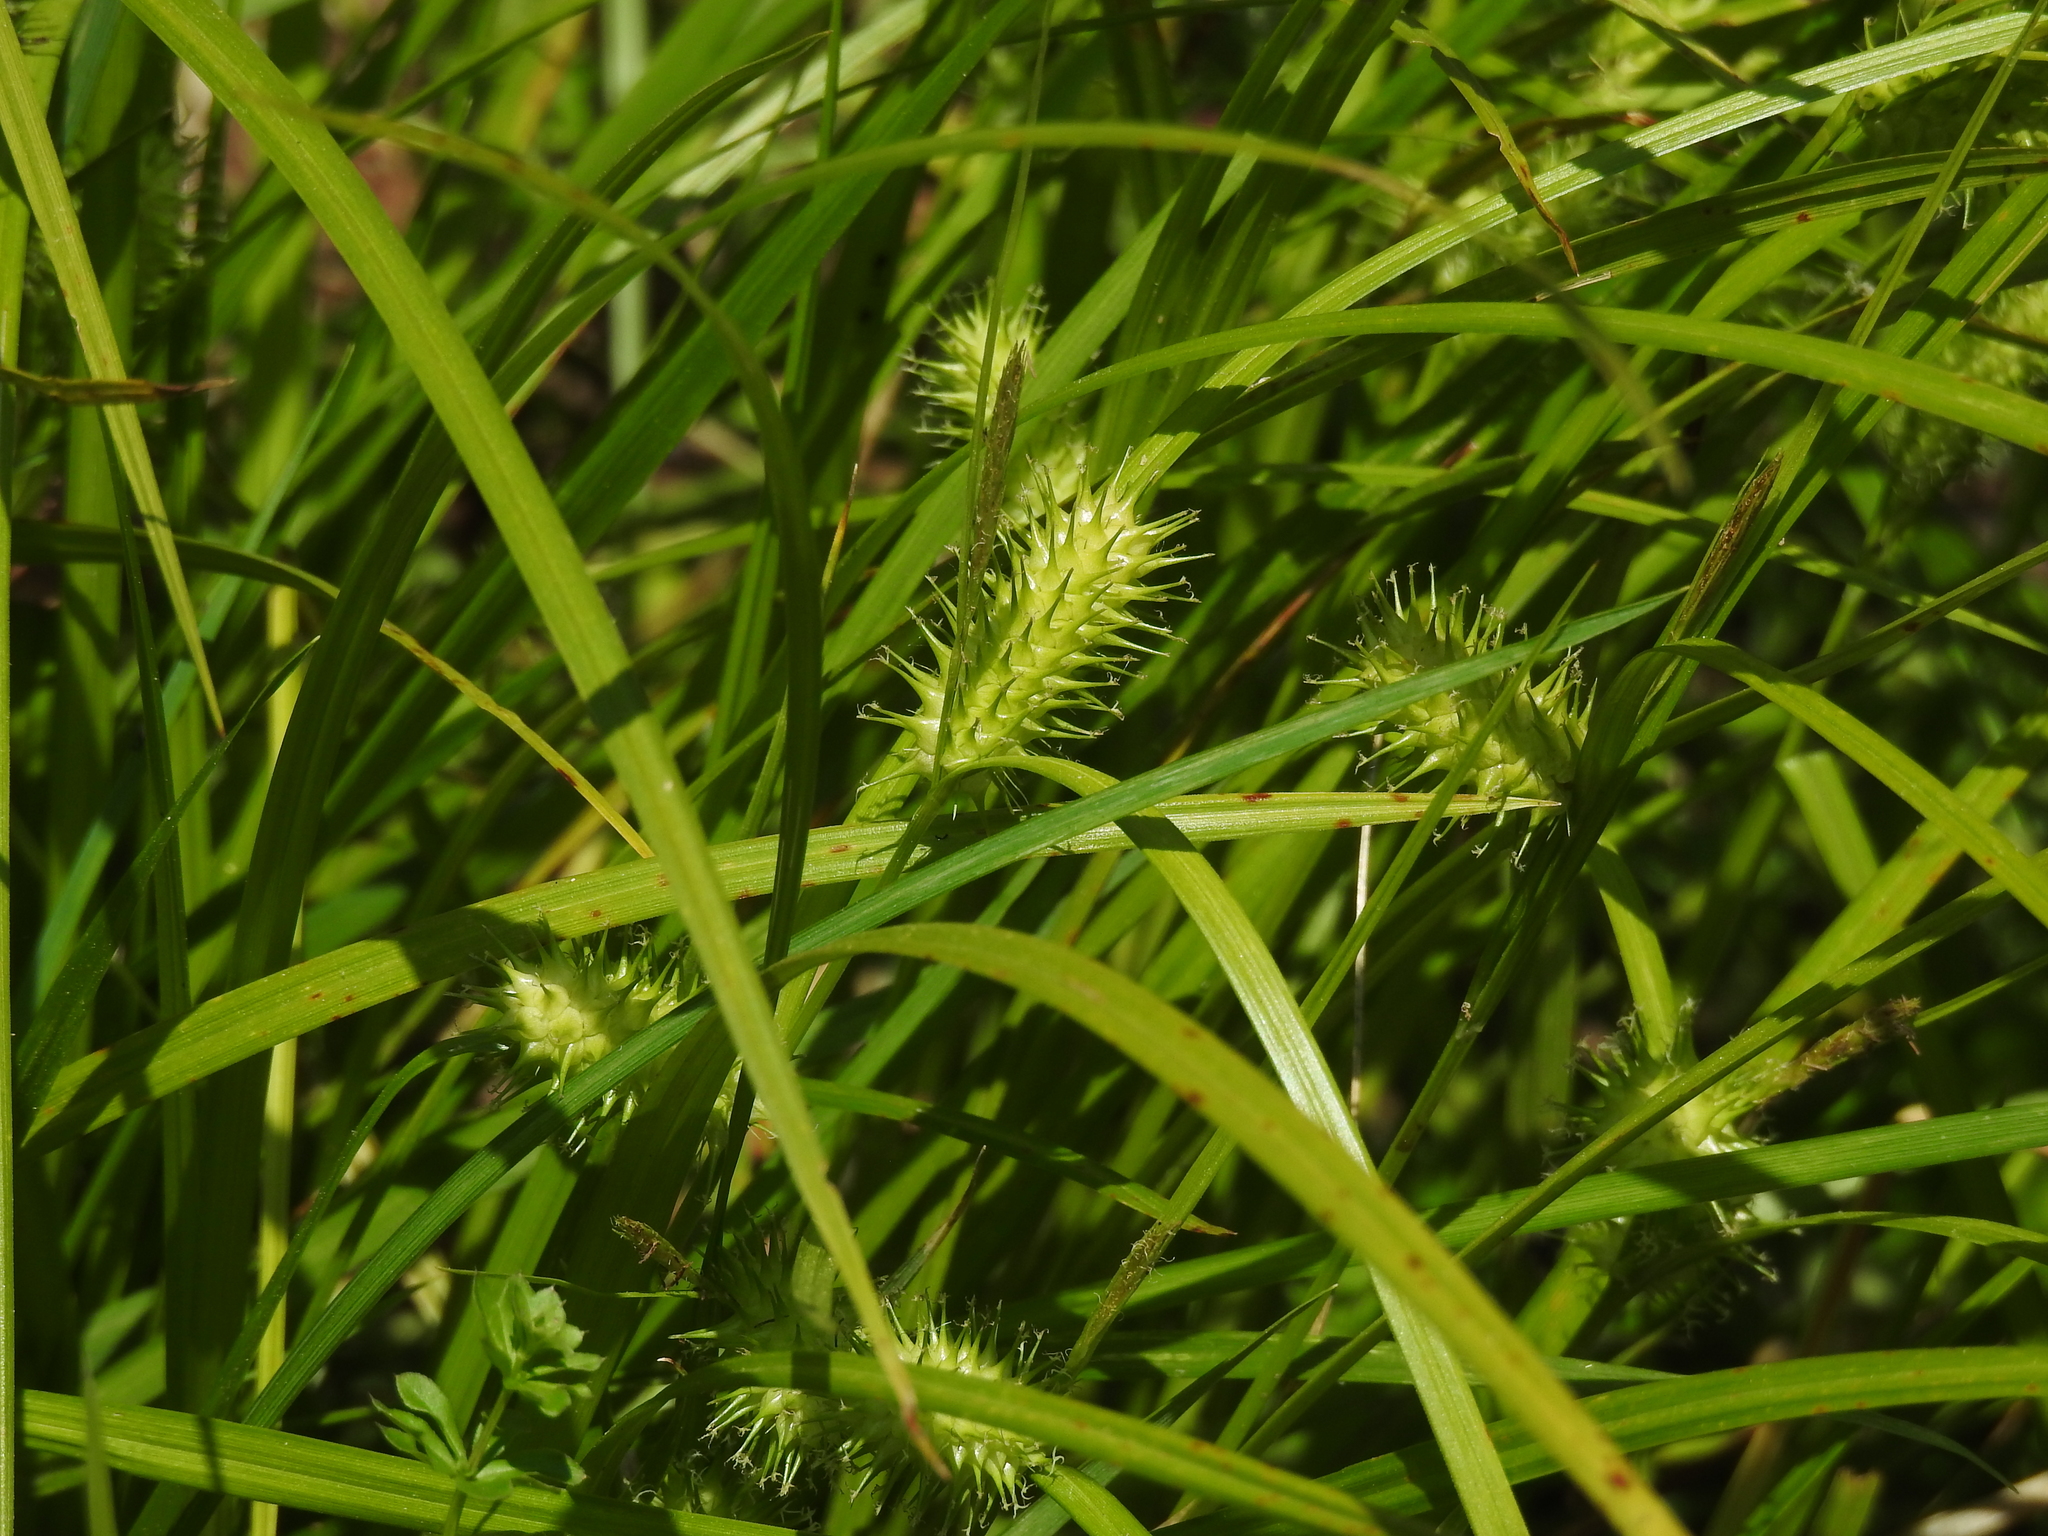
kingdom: Plantae
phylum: Tracheophyta
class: Liliopsida
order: Poales
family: Cyperaceae
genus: Carex
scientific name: Carex lurida
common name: Sallow sedge
